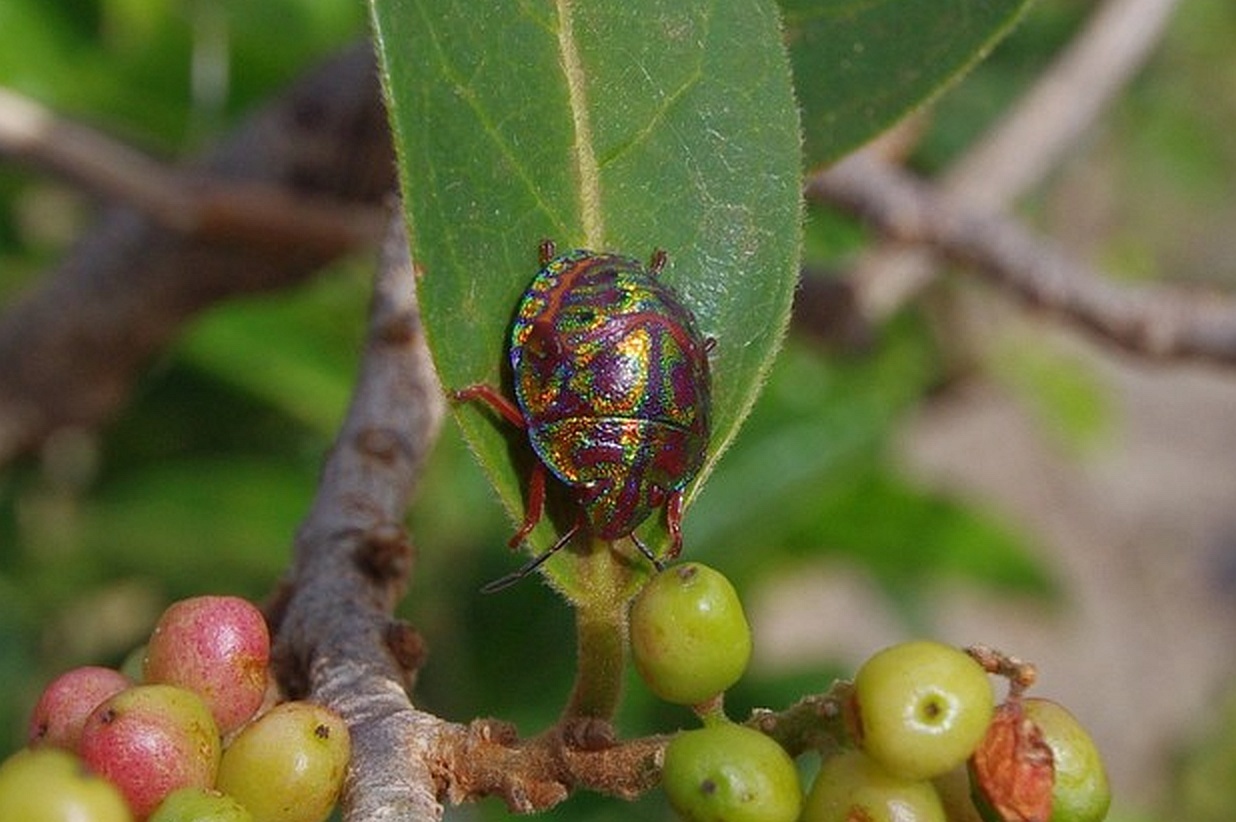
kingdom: Animalia
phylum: Arthropoda
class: Insecta
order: Hemiptera
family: Scutelleridae
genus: Solenosthedium
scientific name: Solenosthedium
